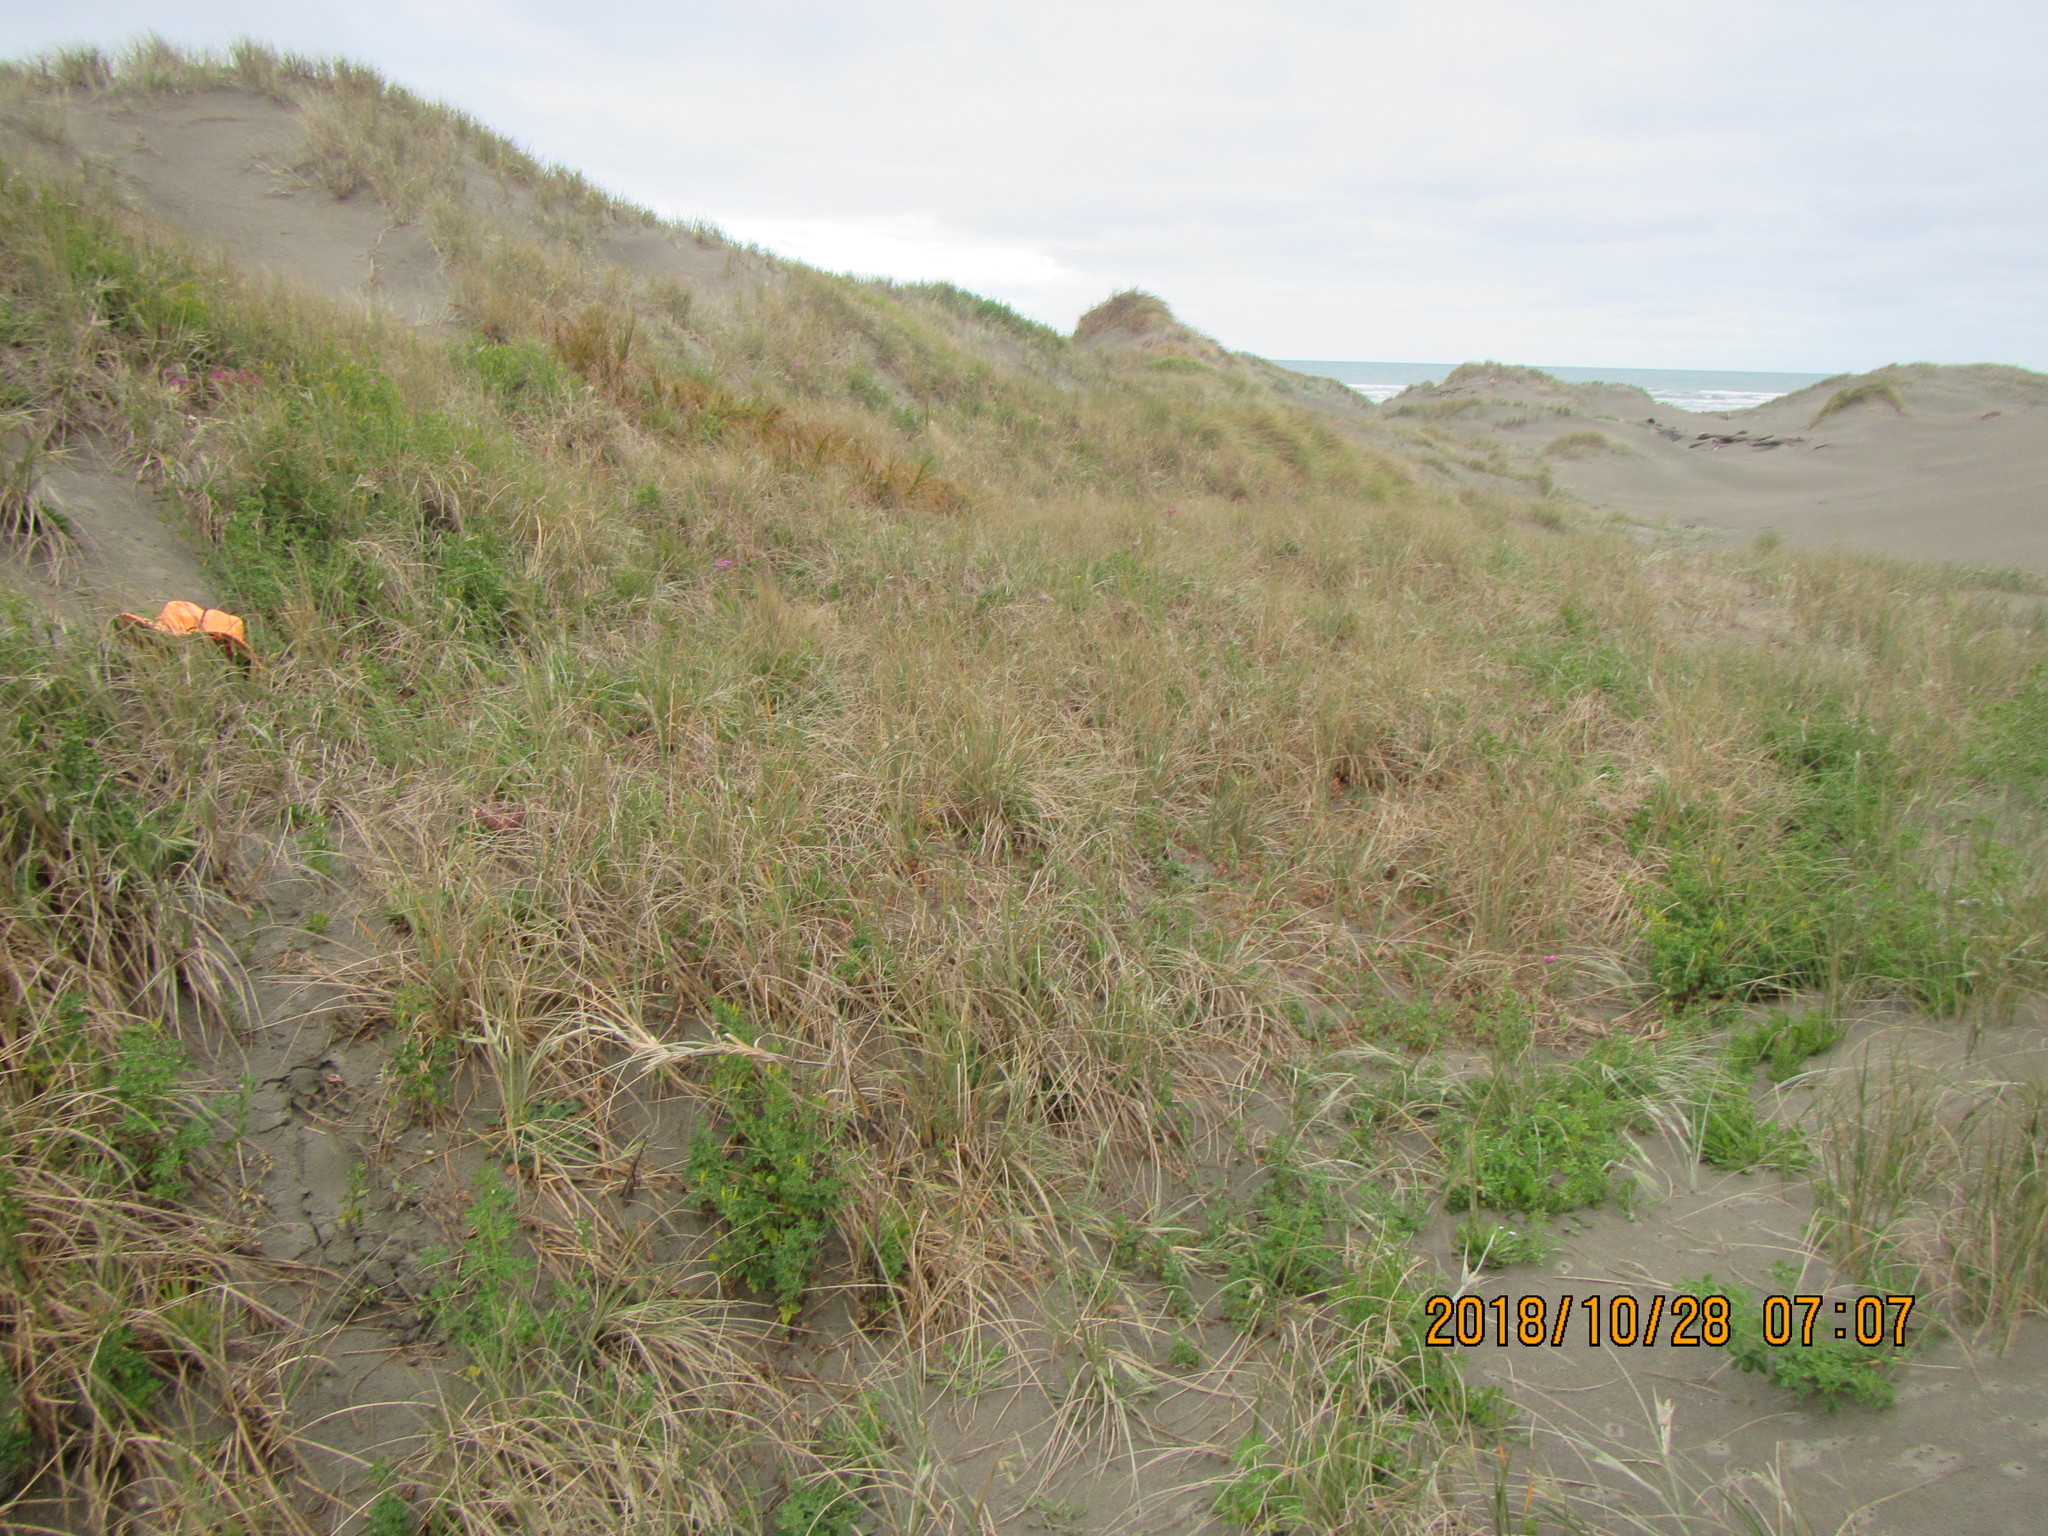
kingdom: Animalia
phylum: Arthropoda
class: Malacostraca
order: Isopoda
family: Tylidae
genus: Tylos
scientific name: Tylos neozelanicus
